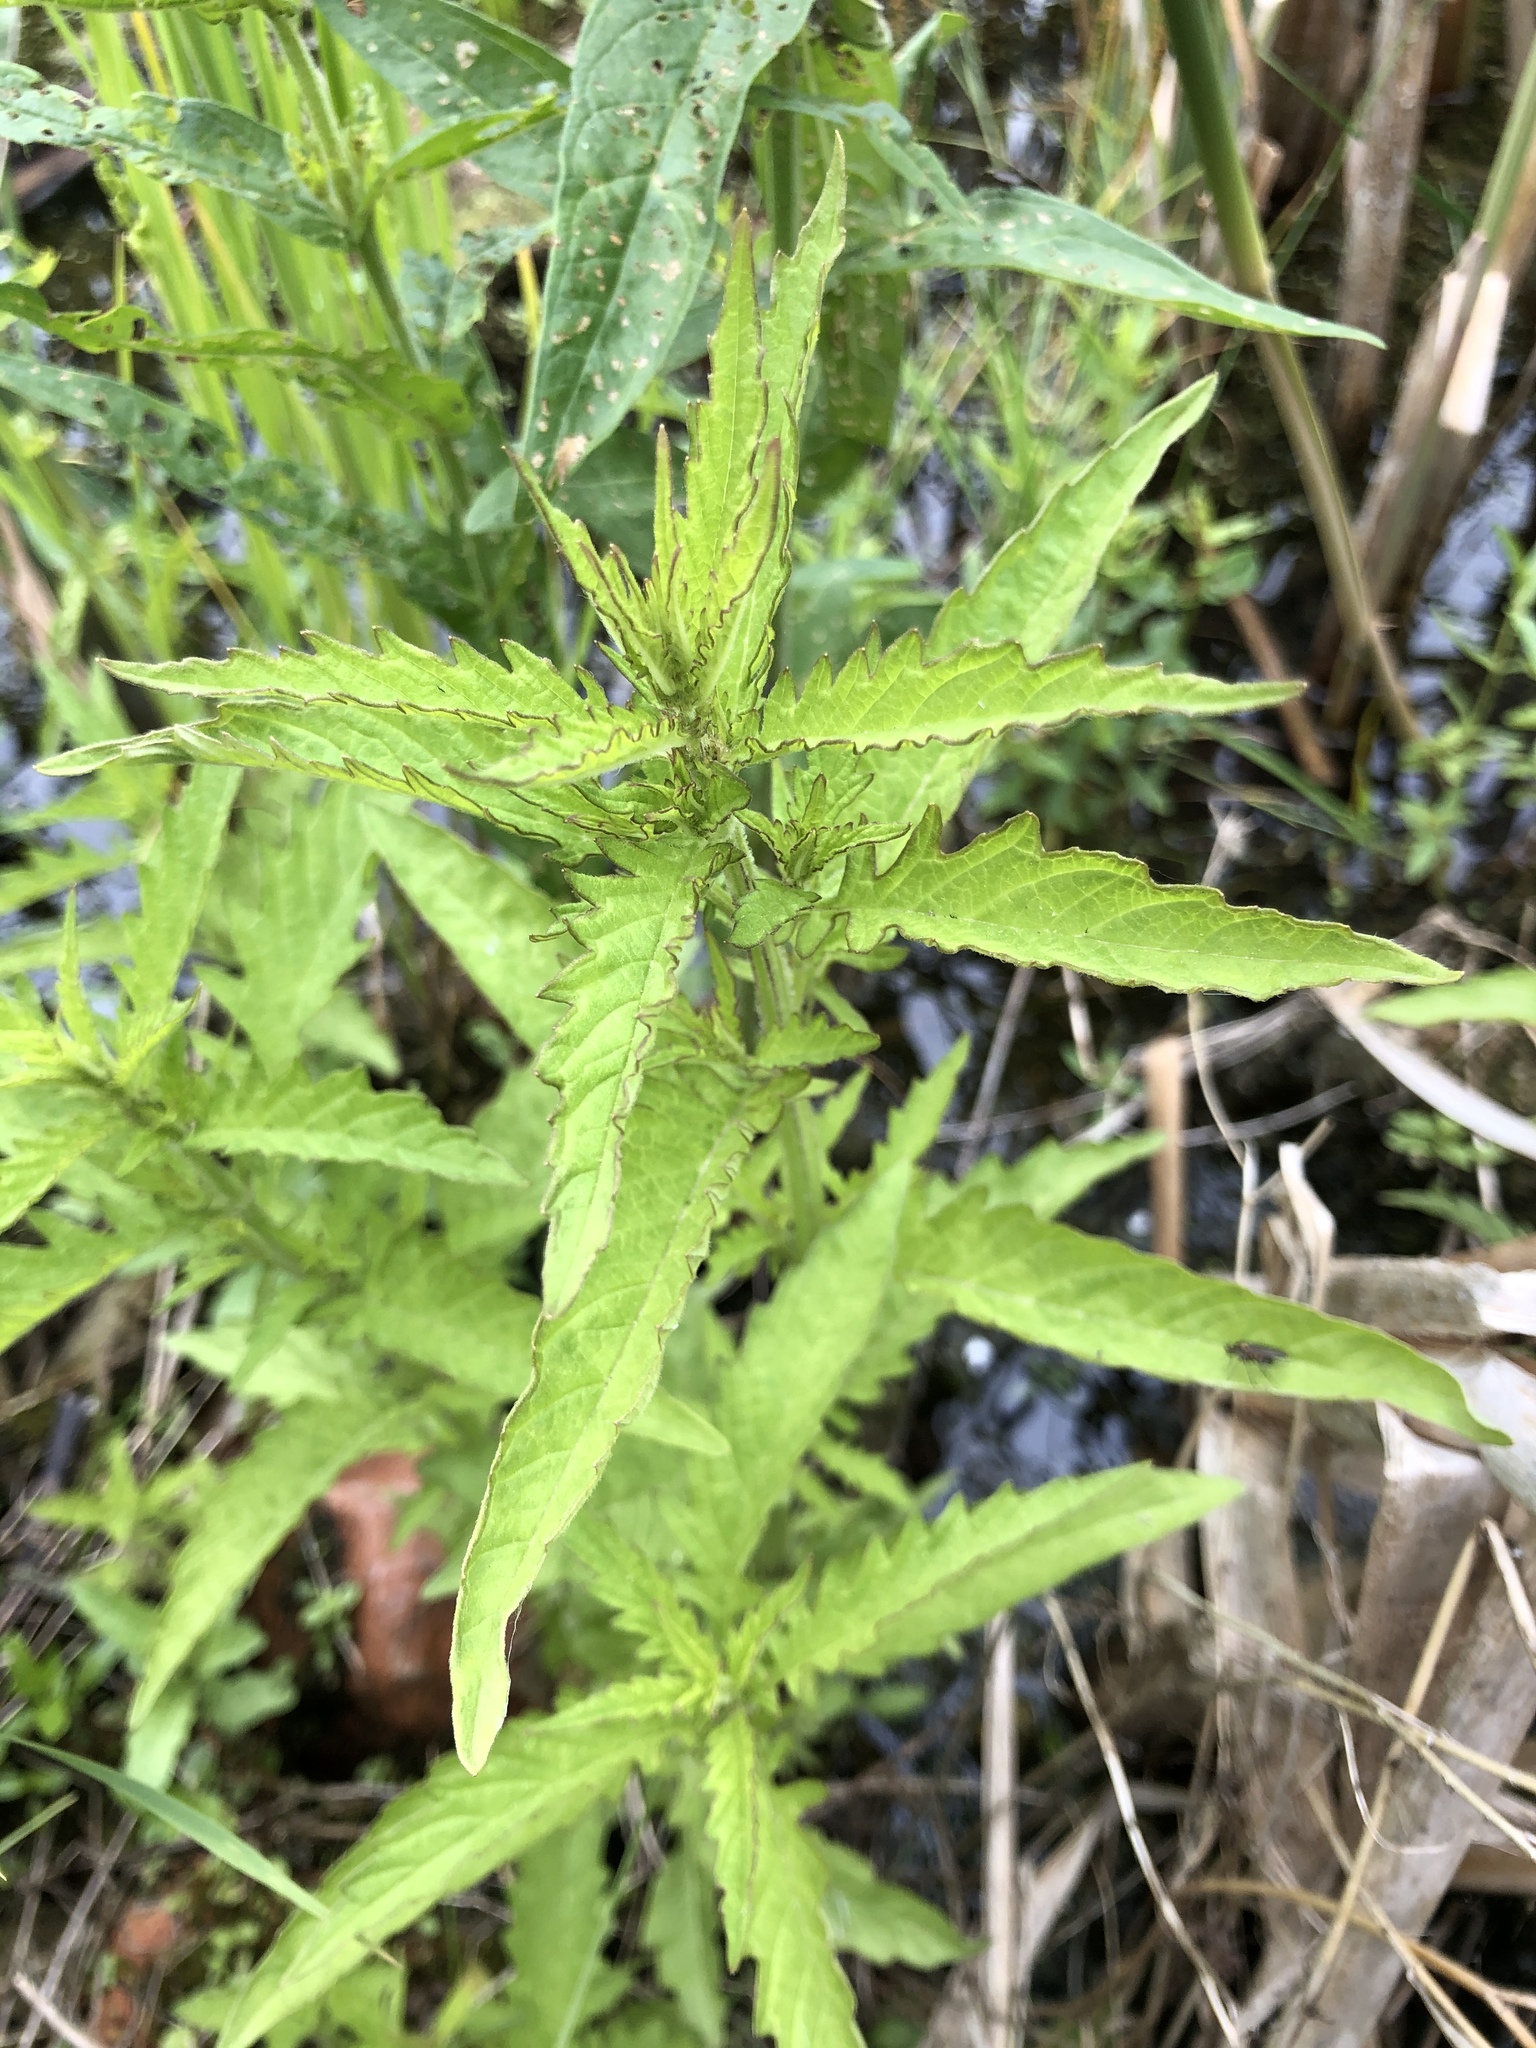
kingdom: Plantae
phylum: Tracheophyta
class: Magnoliopsida
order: Lamiales
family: Lamiaceae
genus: Lycopus
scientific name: Lycopus europaeus
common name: European bugleweed
